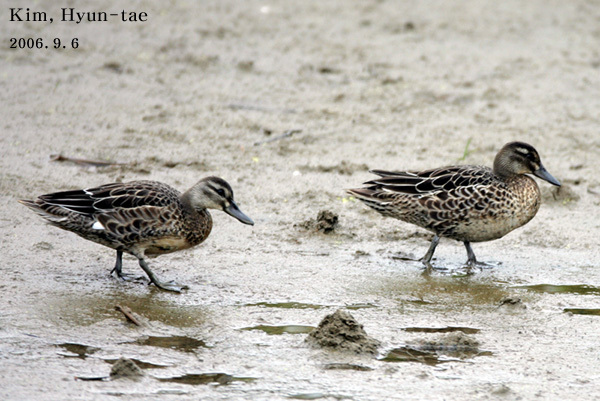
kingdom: Animalia
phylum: Chordata
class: Aves
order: Anseriformes
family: Anatidae
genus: Spatula
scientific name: Spatula querquedula
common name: Garganey
